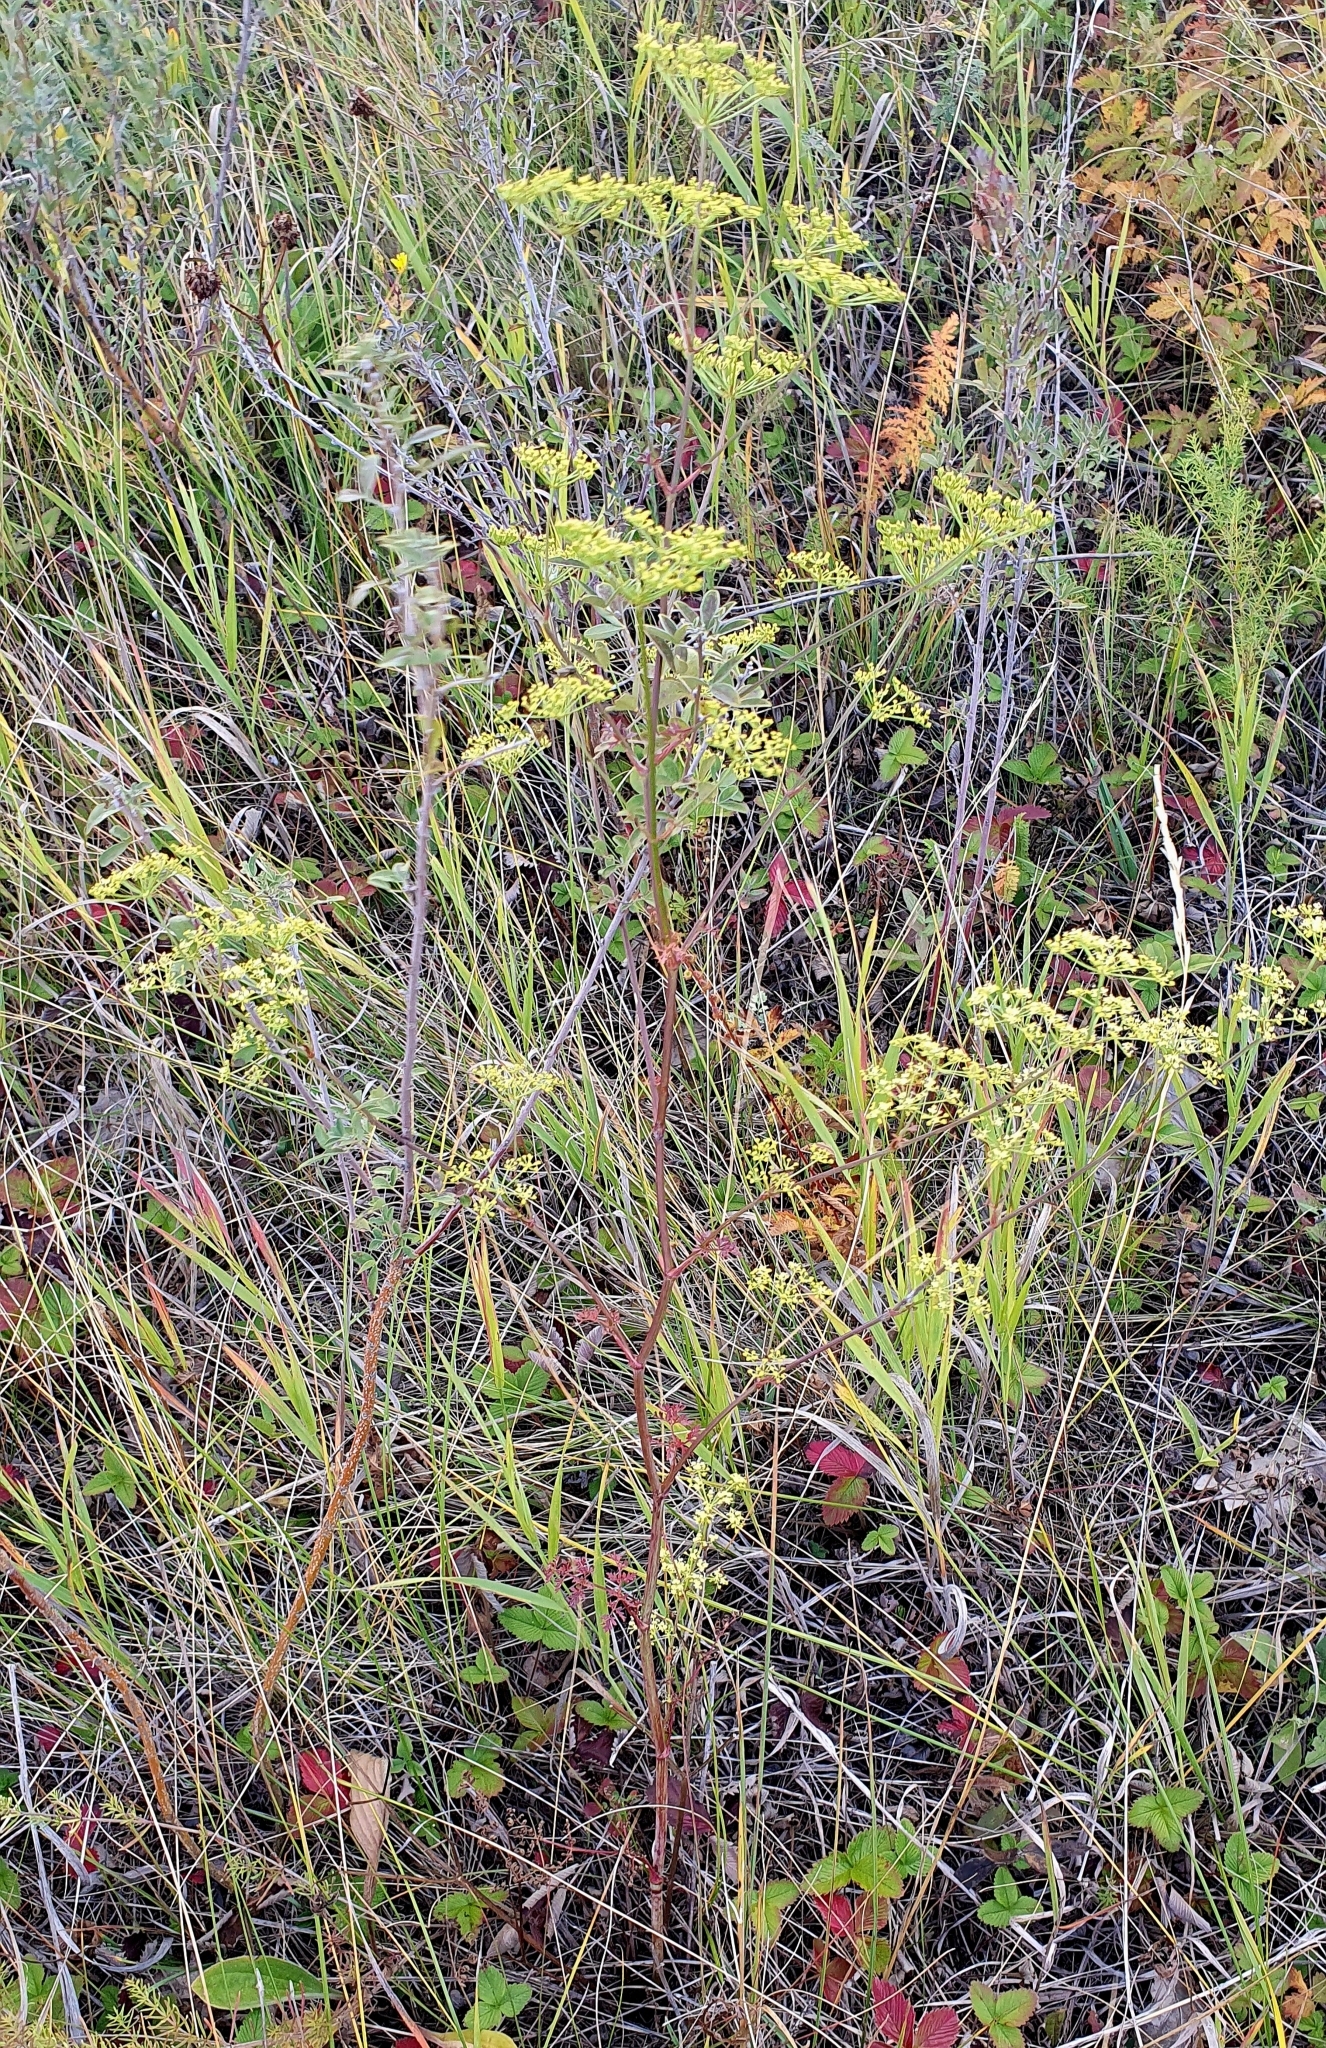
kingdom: Plantae
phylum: Tracheophyta
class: Magnoliopsida
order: Apiales
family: Apiaceae
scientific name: Apiaceae
